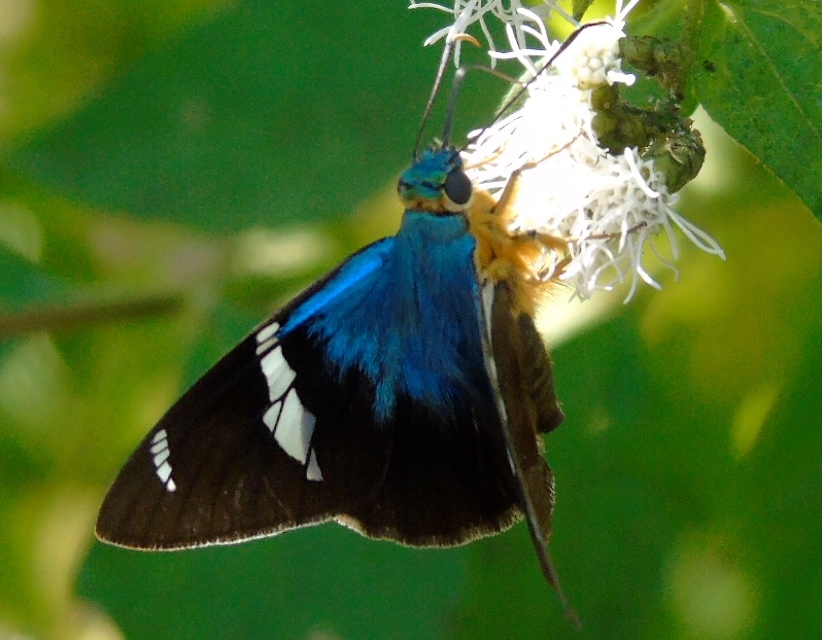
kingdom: Animalia
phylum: Arthropoda
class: Insecta
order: Lepidoptera
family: Hesperiidae
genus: Astraptes
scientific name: Astraptes fulgerator
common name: Two-barred flasher
